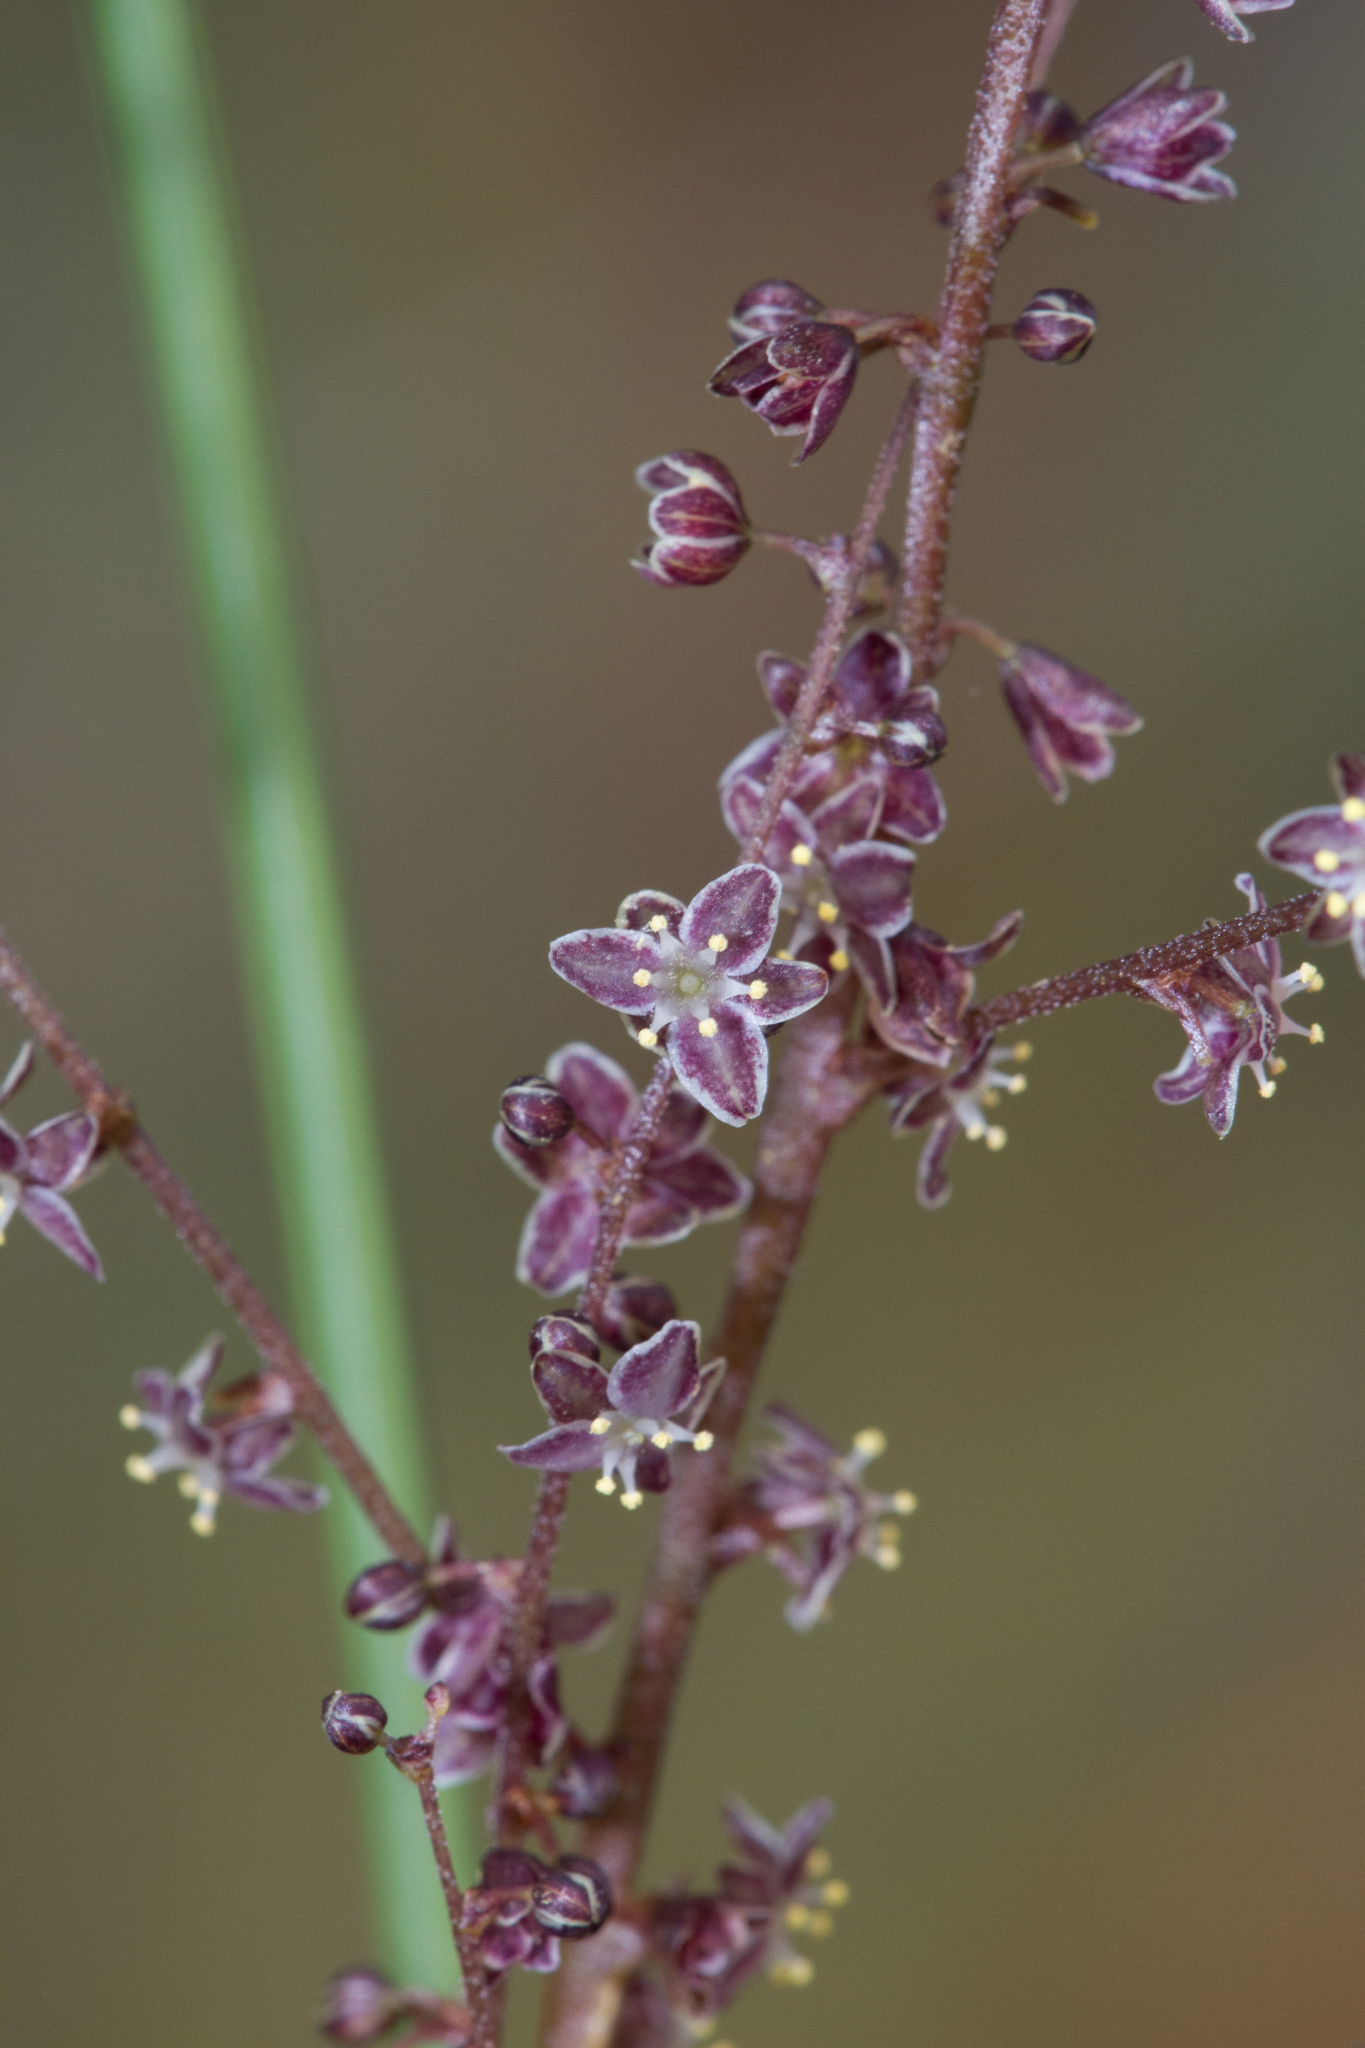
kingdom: Plantae
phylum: Tracheophyta
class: Liliopsida
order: Asparagales
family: Asparagaceae
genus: Lomandra
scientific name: Lomandra micrantha
